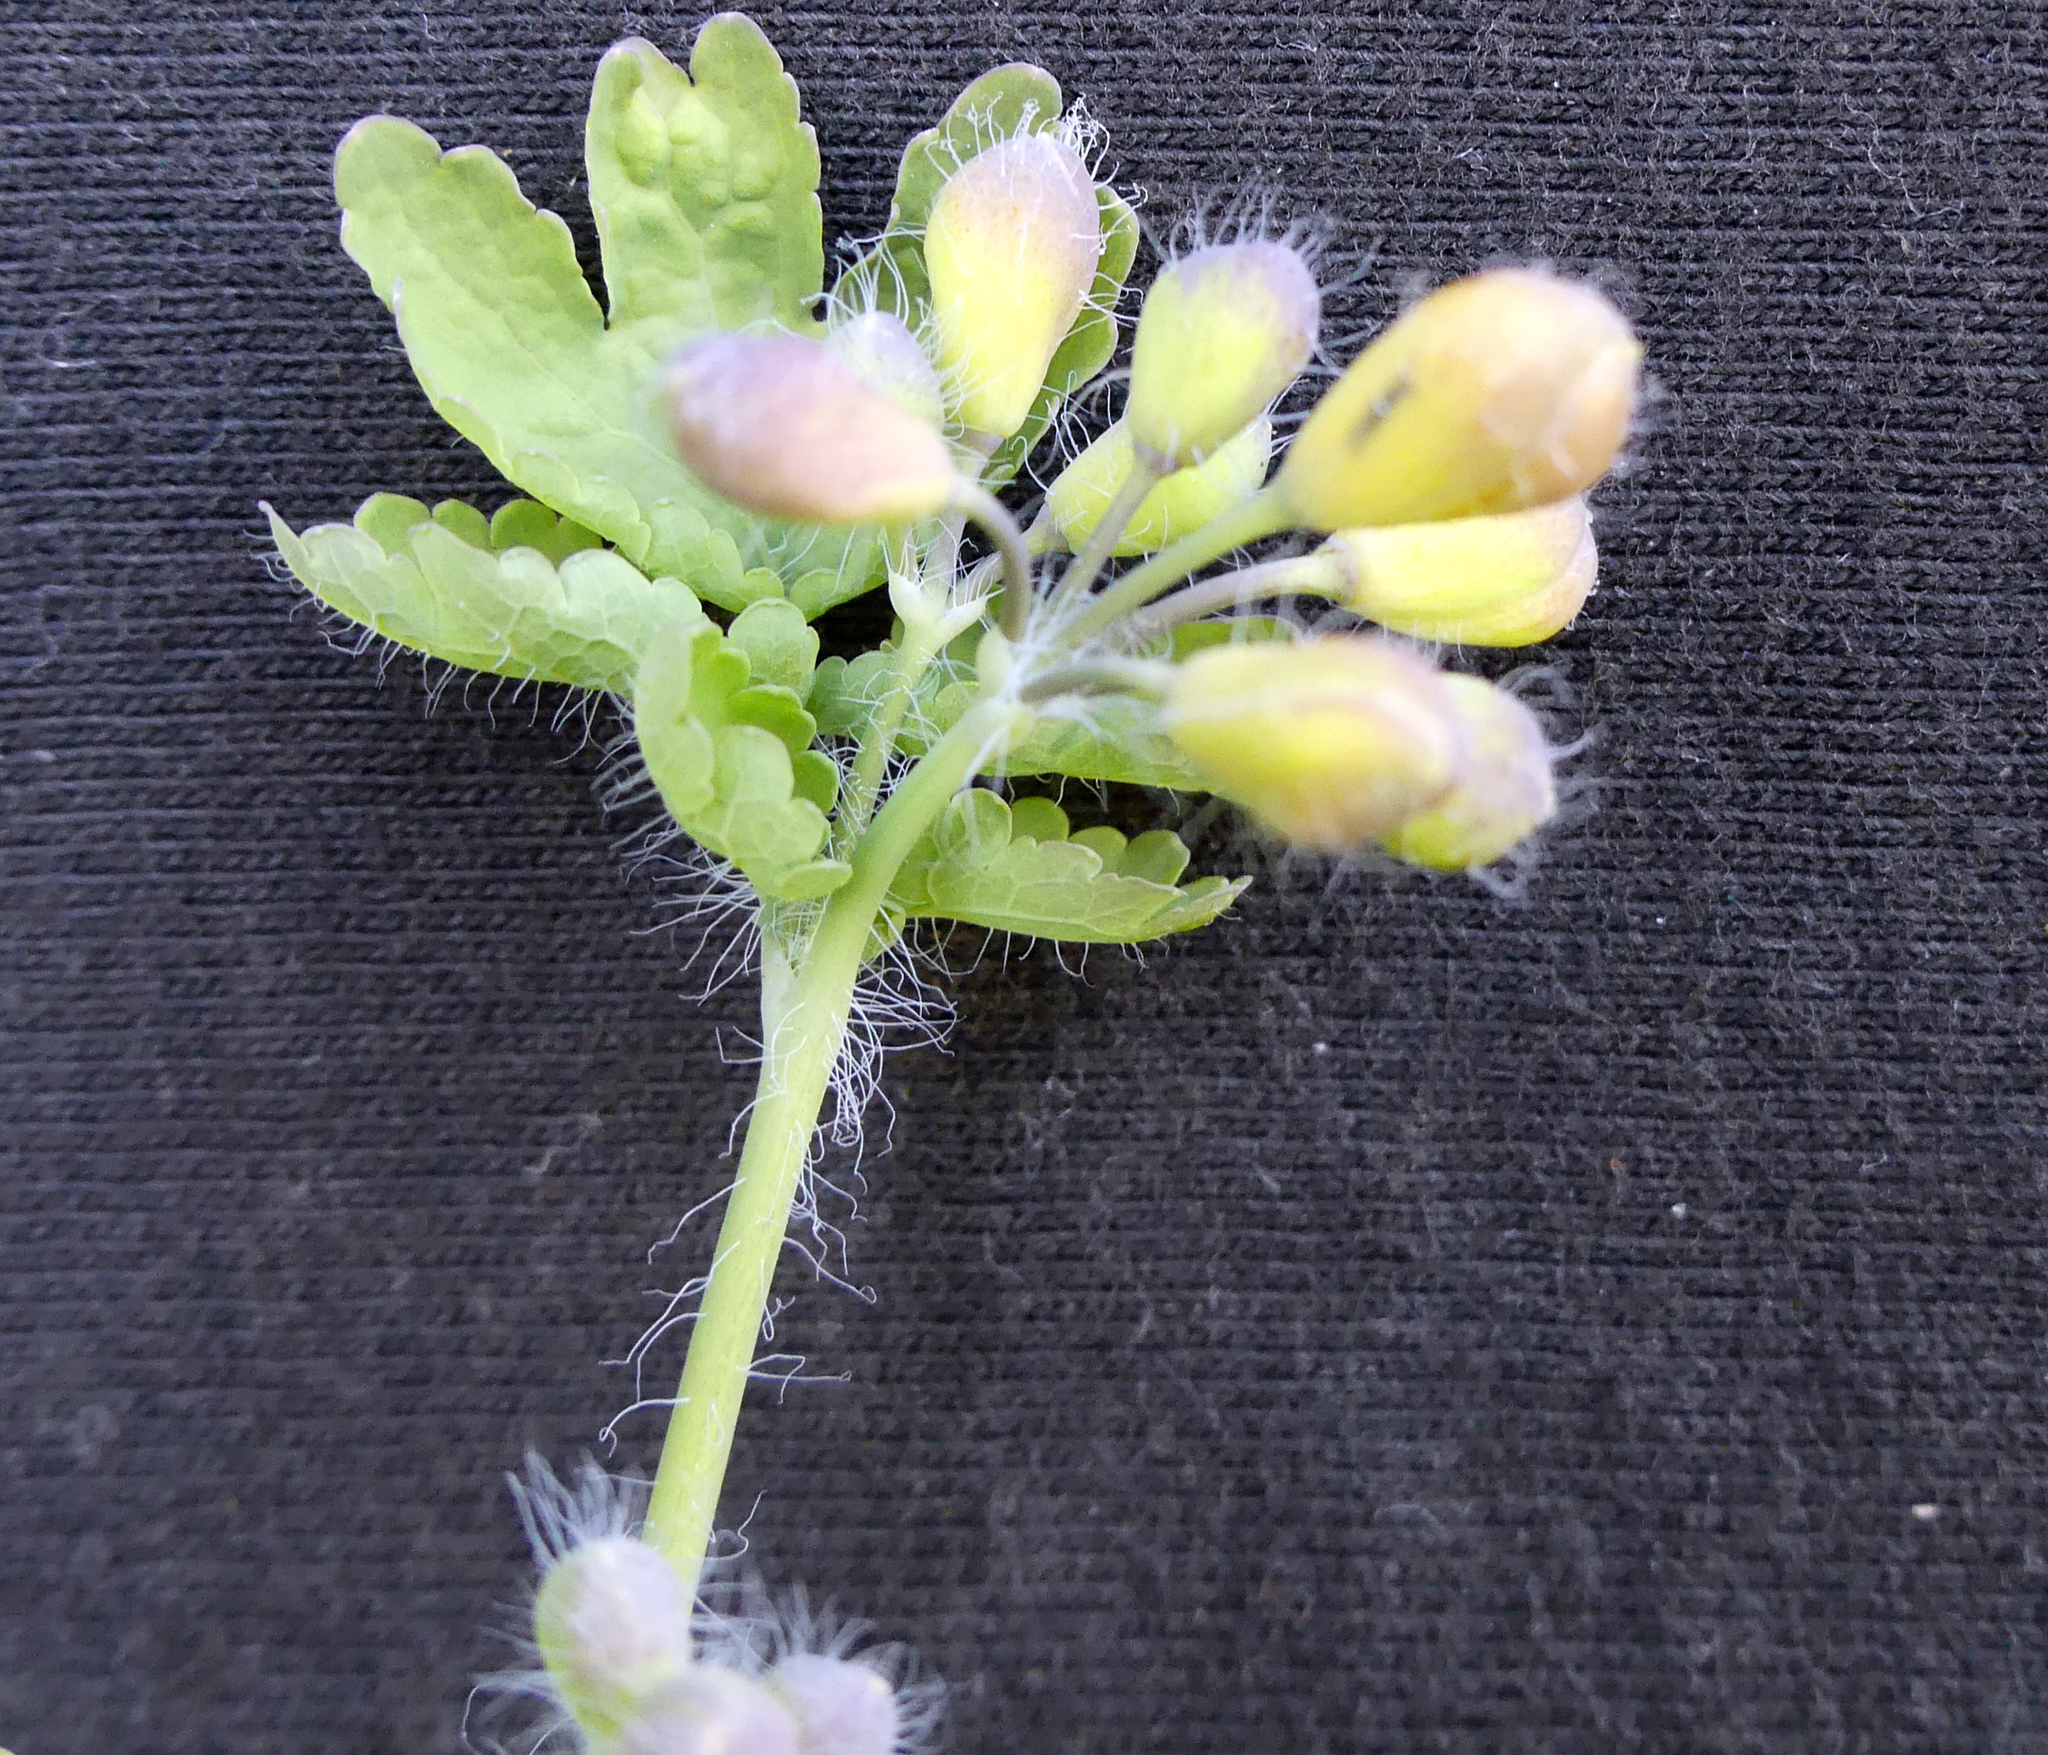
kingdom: Plantae
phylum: Tracheophyta
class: Magnoliopsida
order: Ranunculales
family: Papaveraceae
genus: Chelidonium
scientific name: Chelidonium majus
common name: Greater celandine
